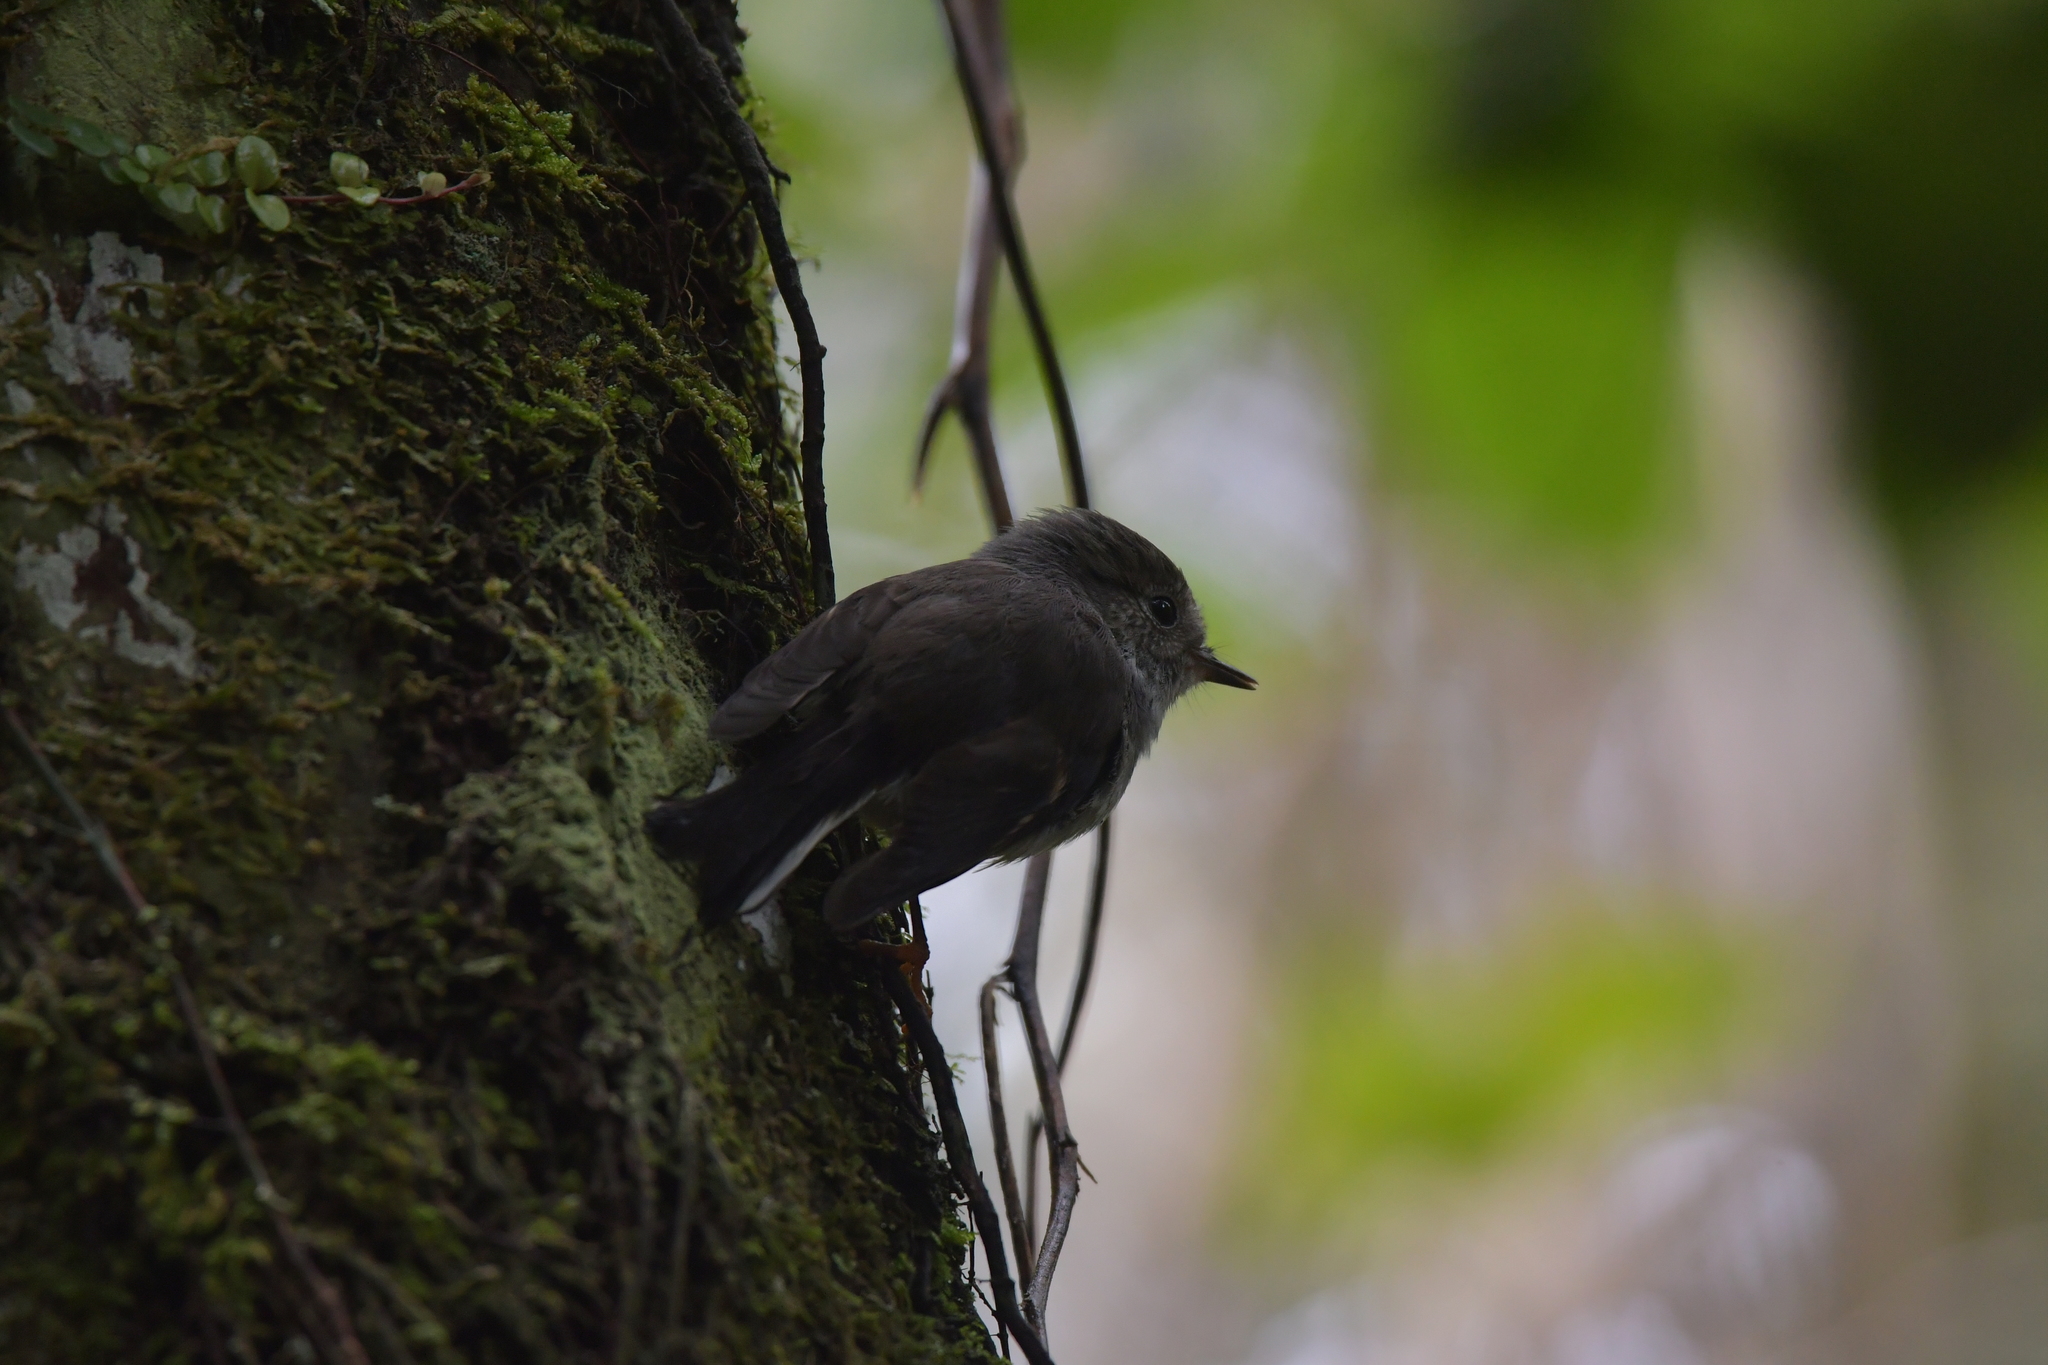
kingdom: Animalia
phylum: Chordata
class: Aves
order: Passeriformes
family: Petroicidae
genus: Petroica
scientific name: Petroica macrocephala
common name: Tomtit
